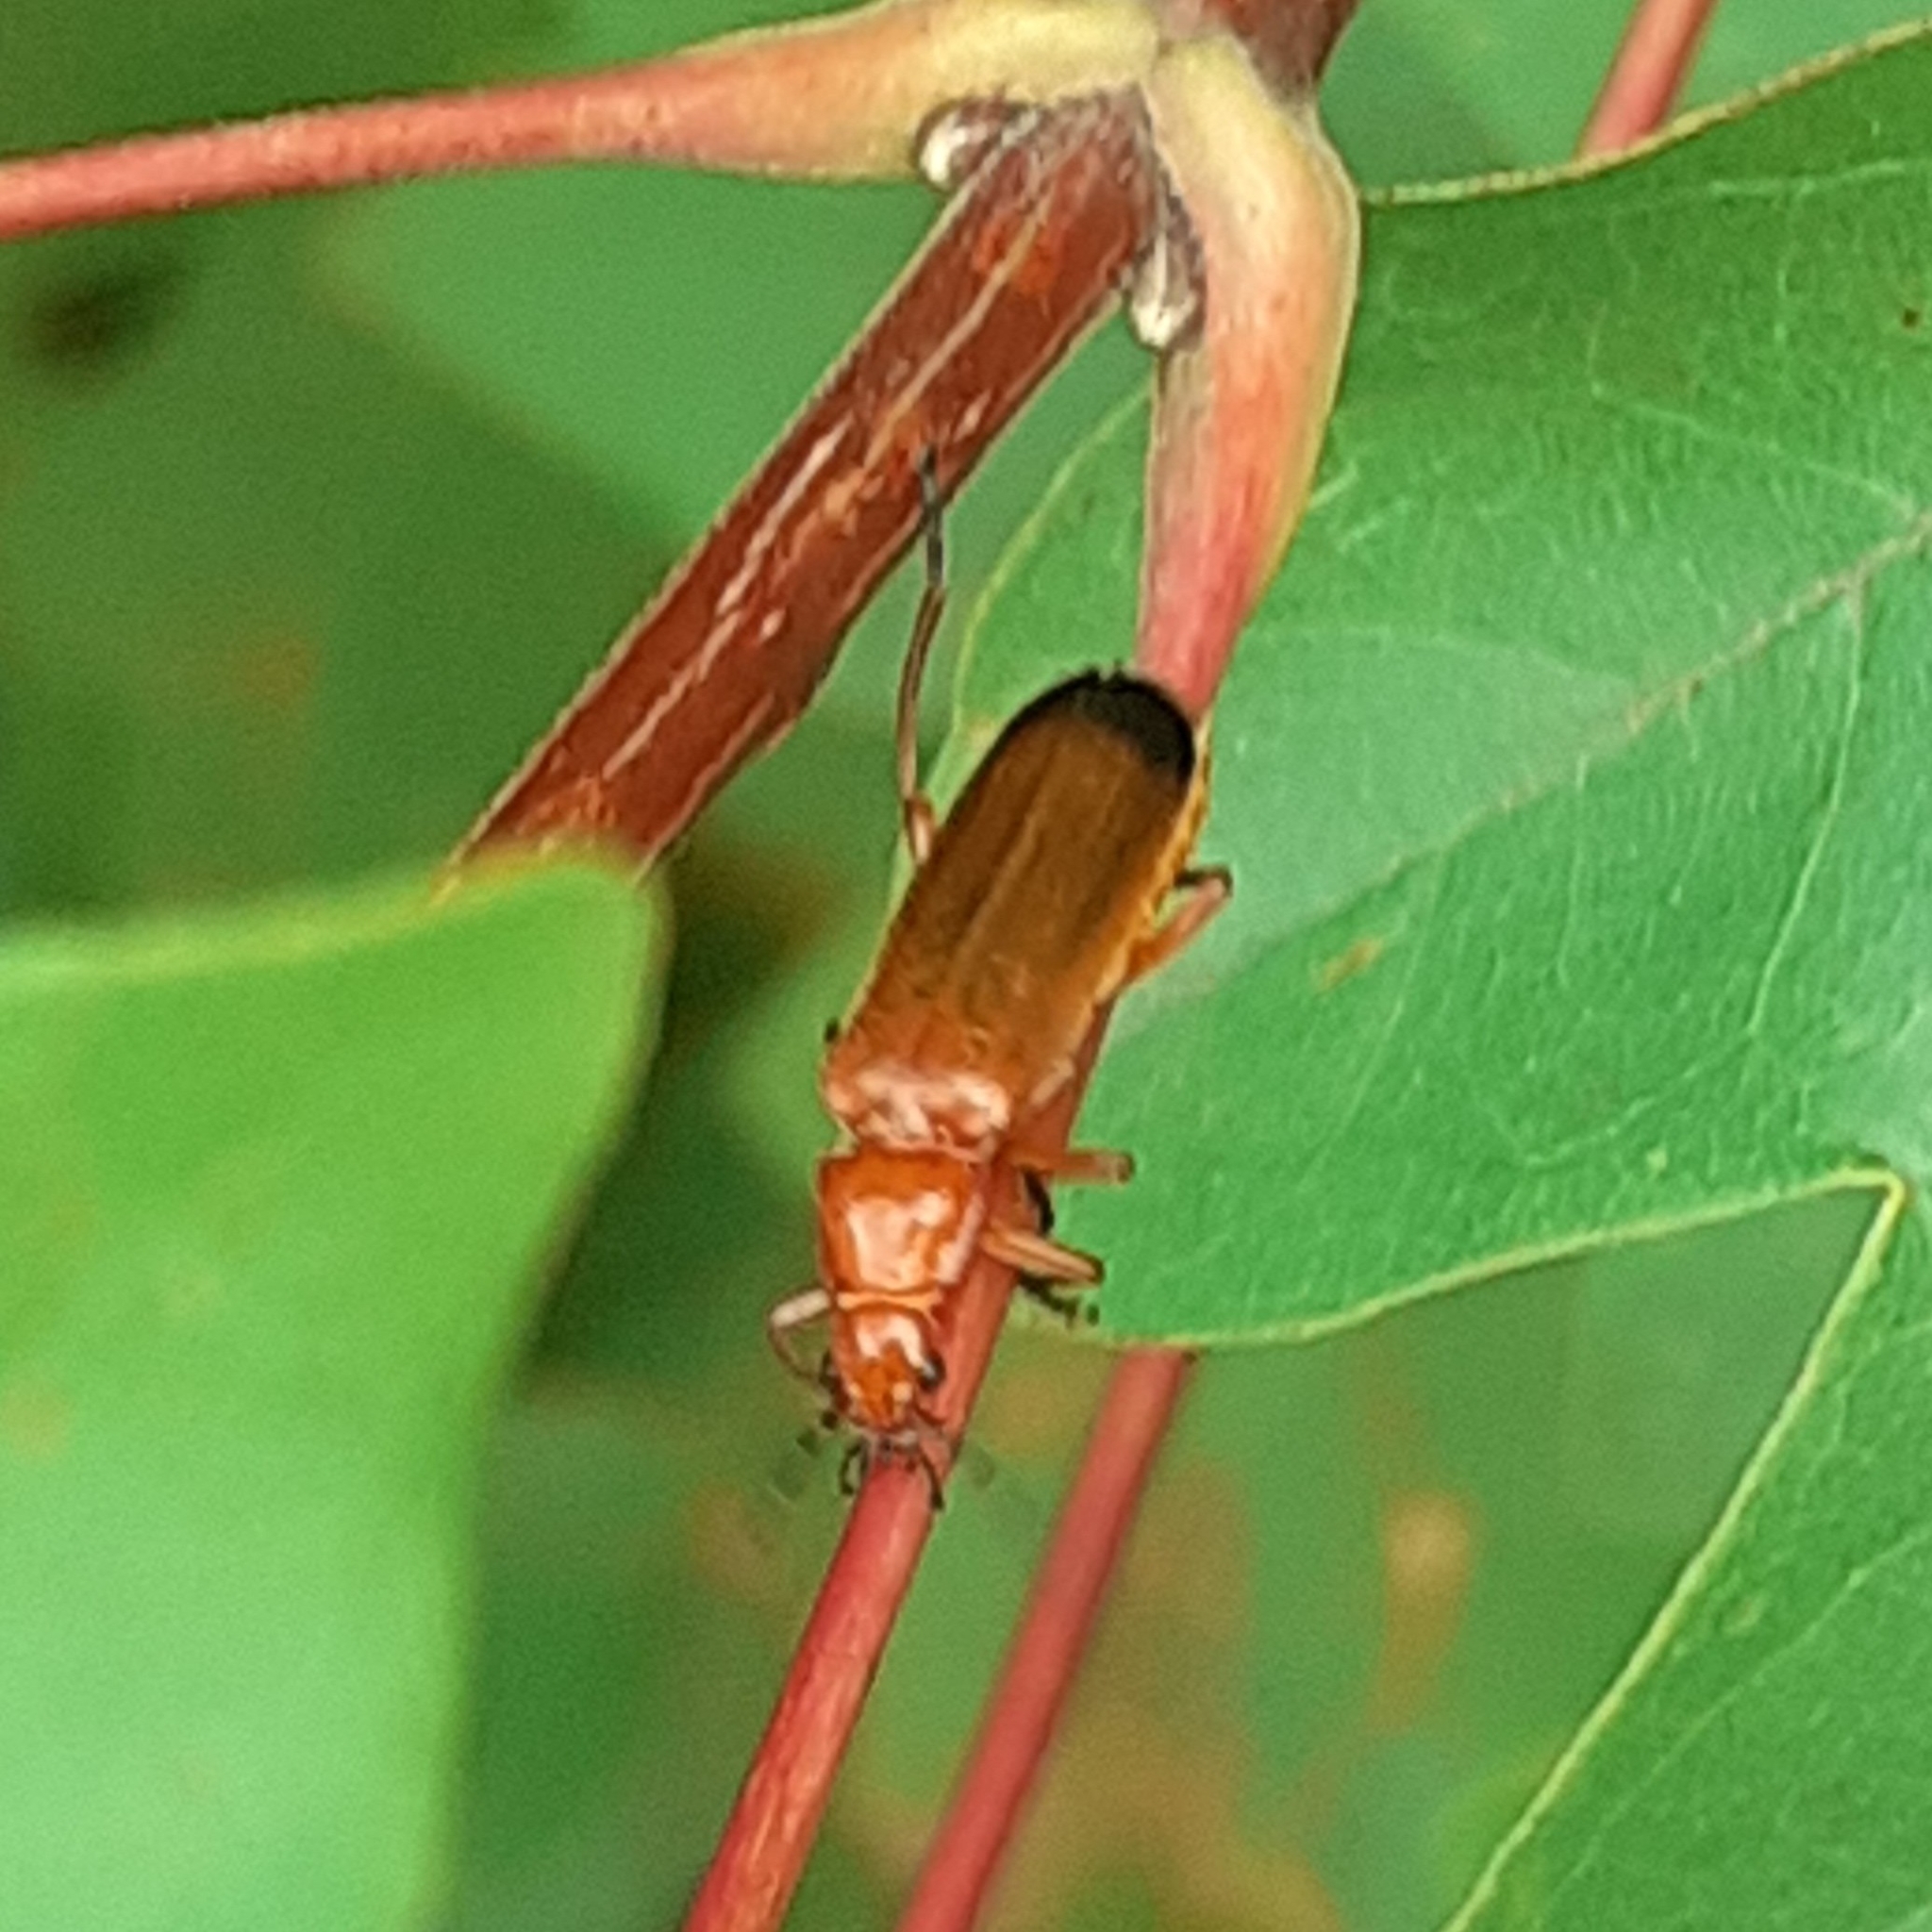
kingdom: Animalia
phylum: Arthropoda
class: Insecta
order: Coleoptera
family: Cantharidae
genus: Rhagonycha
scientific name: Rhagonycha fulva
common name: Common red soldier beetle
